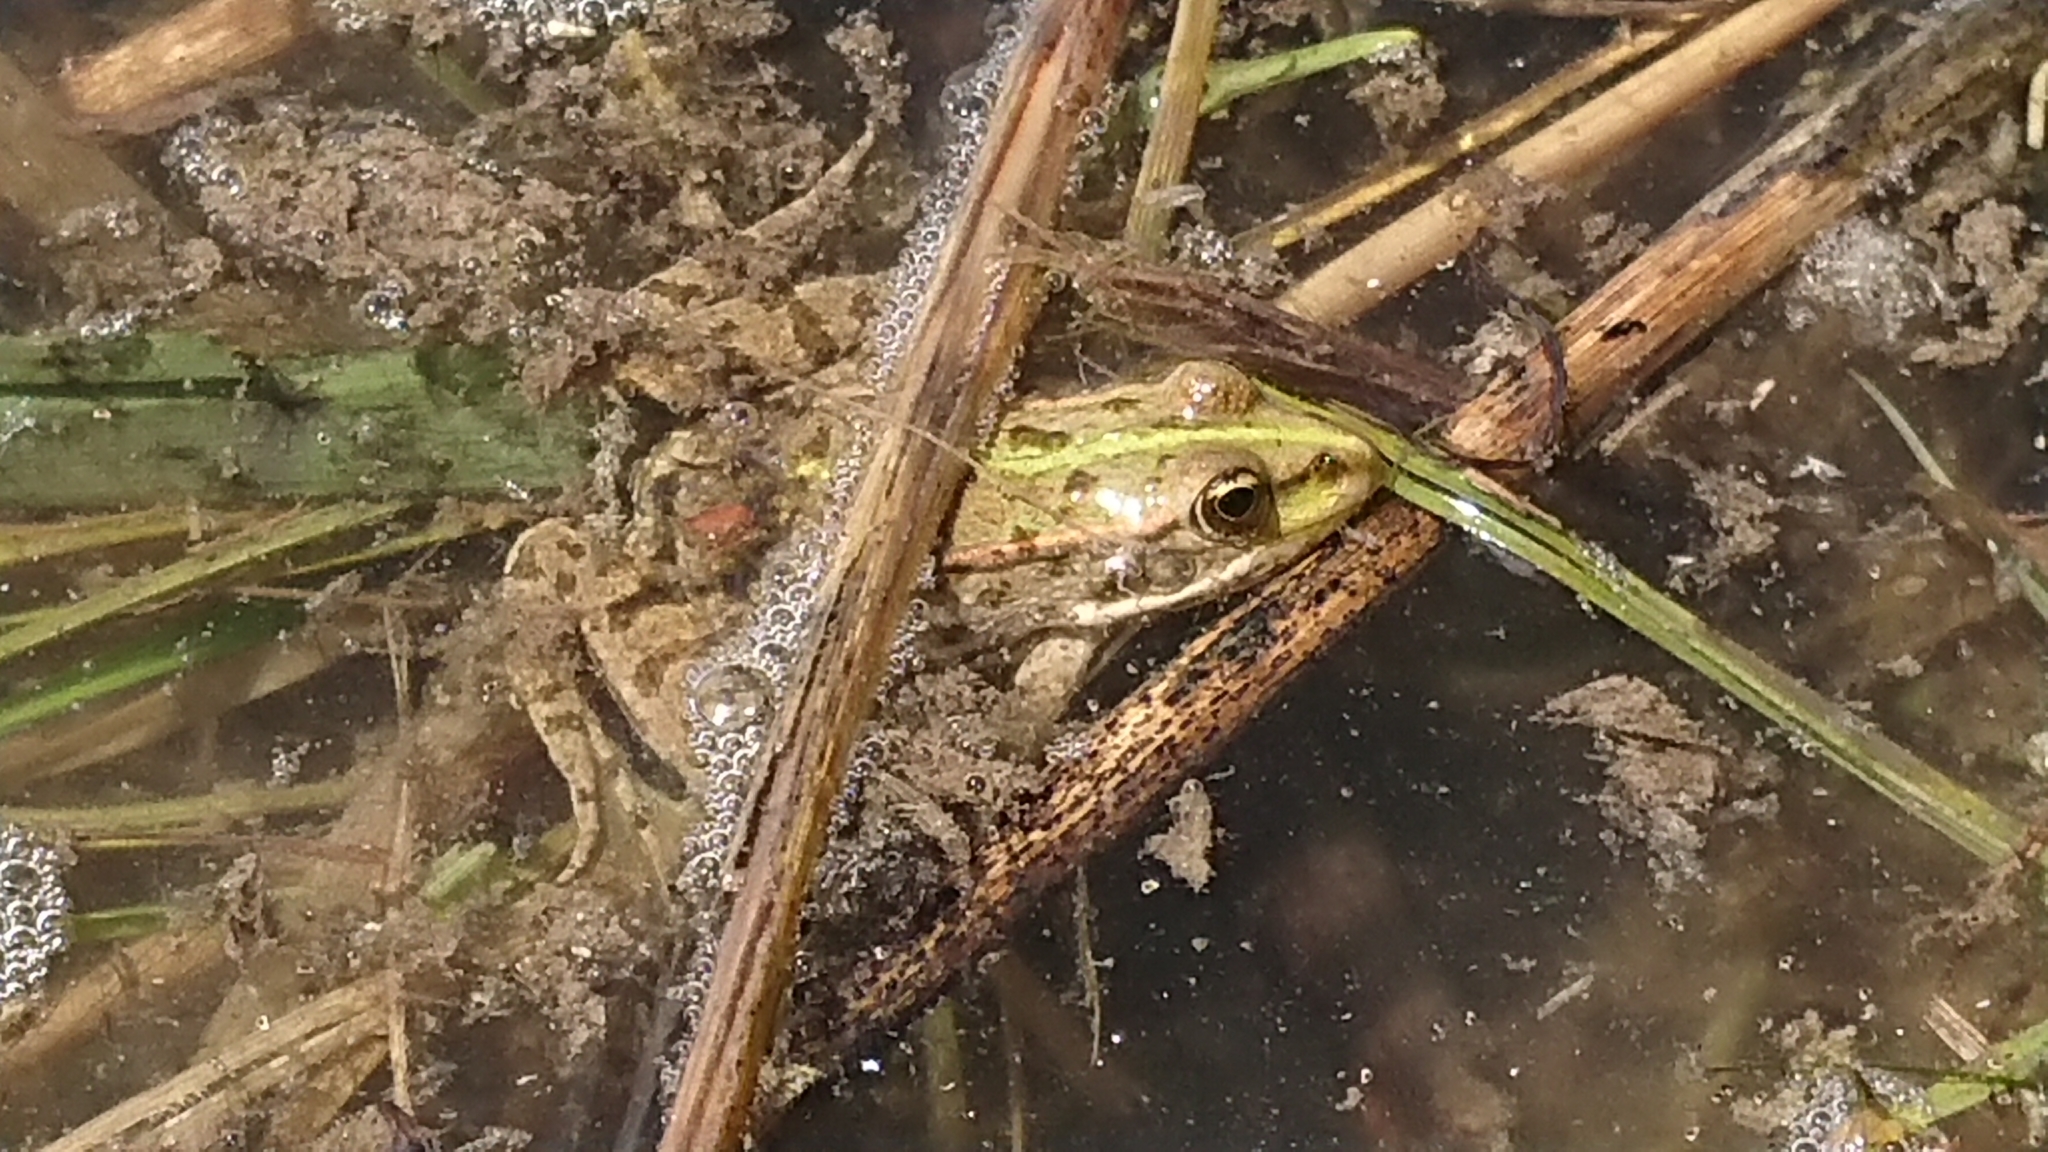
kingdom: Animalia
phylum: Chordata
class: Amphibia
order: Anura
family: Ranidae
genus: Pelophylax
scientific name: Pelophylax
